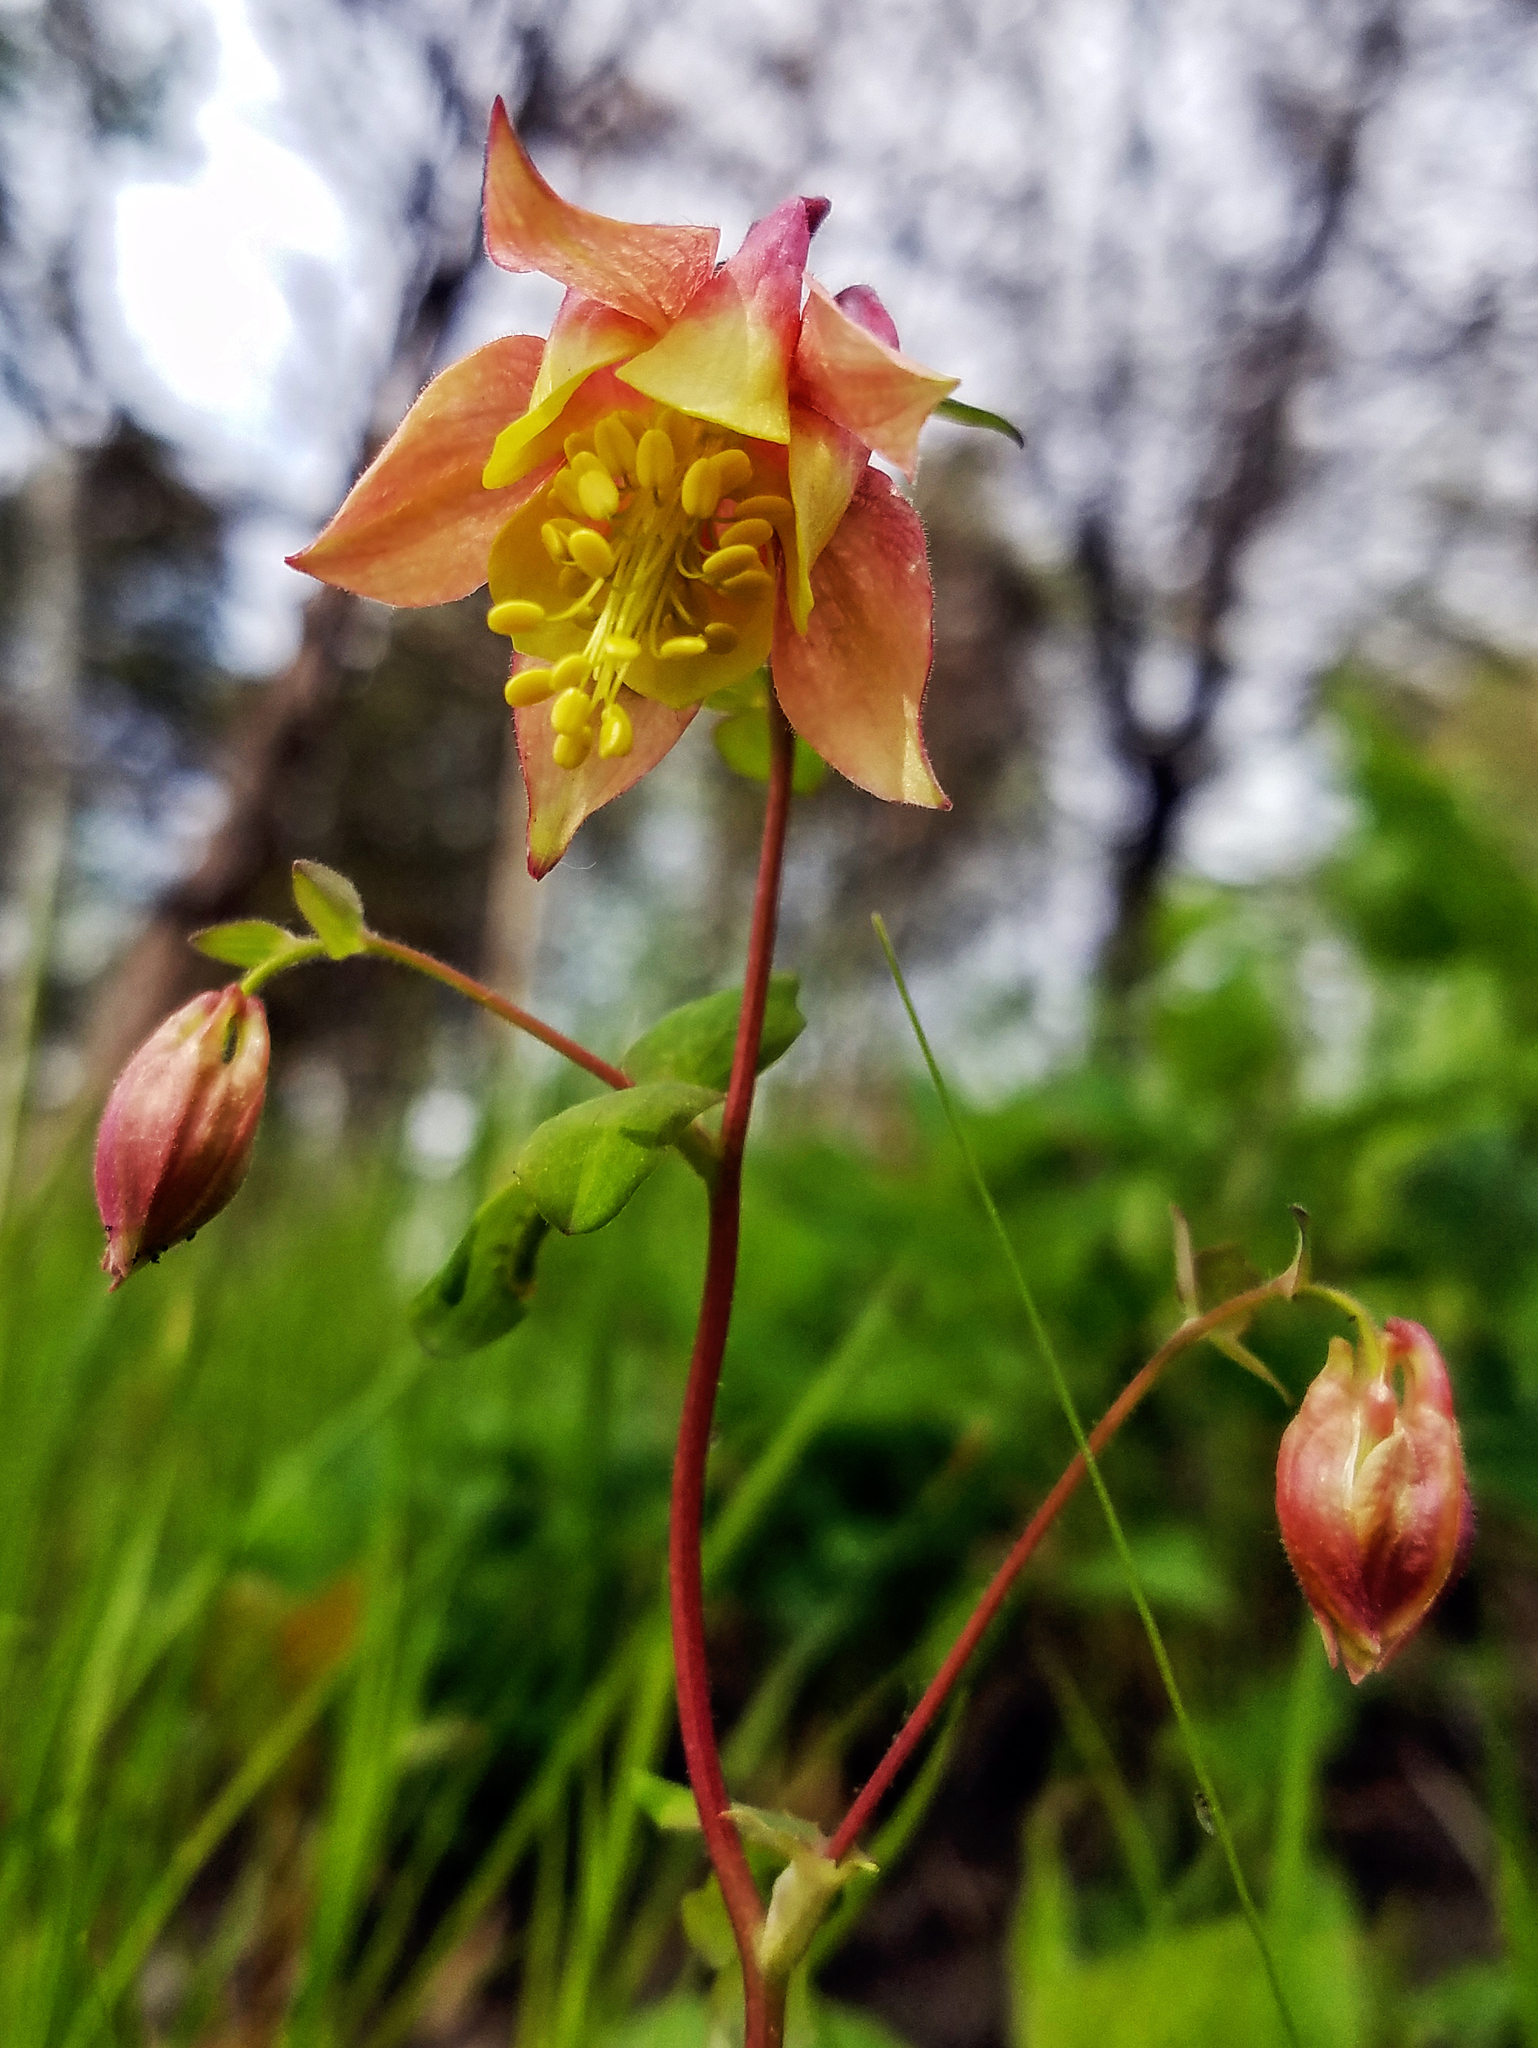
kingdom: Plantae
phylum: Tracheophyta
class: Magnoliopsida
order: Ranunculales
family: Ranunculaceae
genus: Aquilegia
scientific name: Aquilegia canadensis
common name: American columbine
